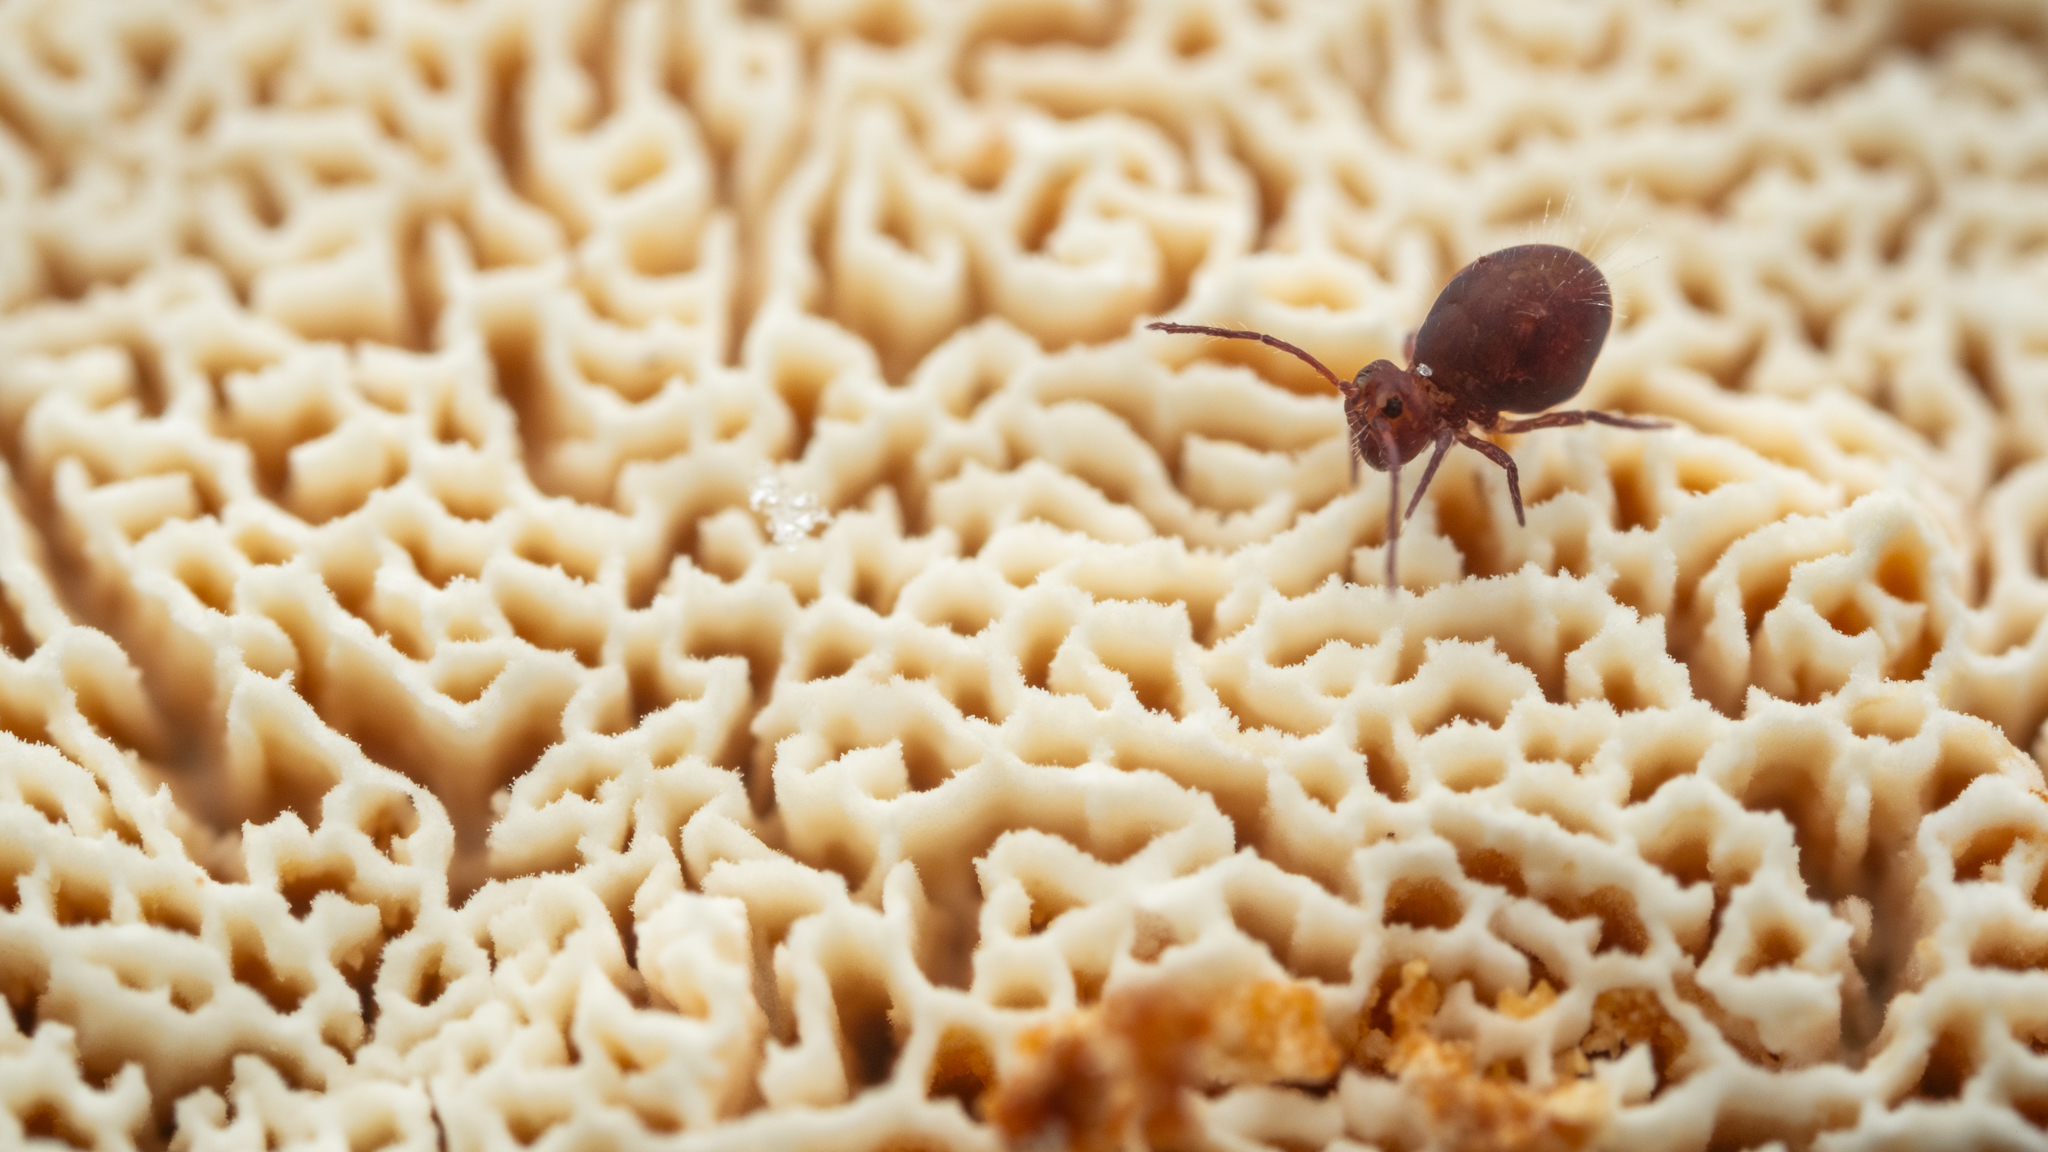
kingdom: Animalia
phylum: Arthropoda
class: Collembola
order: Symphypleona
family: Dicyrtomidae
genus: Dicyrtoma
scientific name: Dicyrtoma fusca
